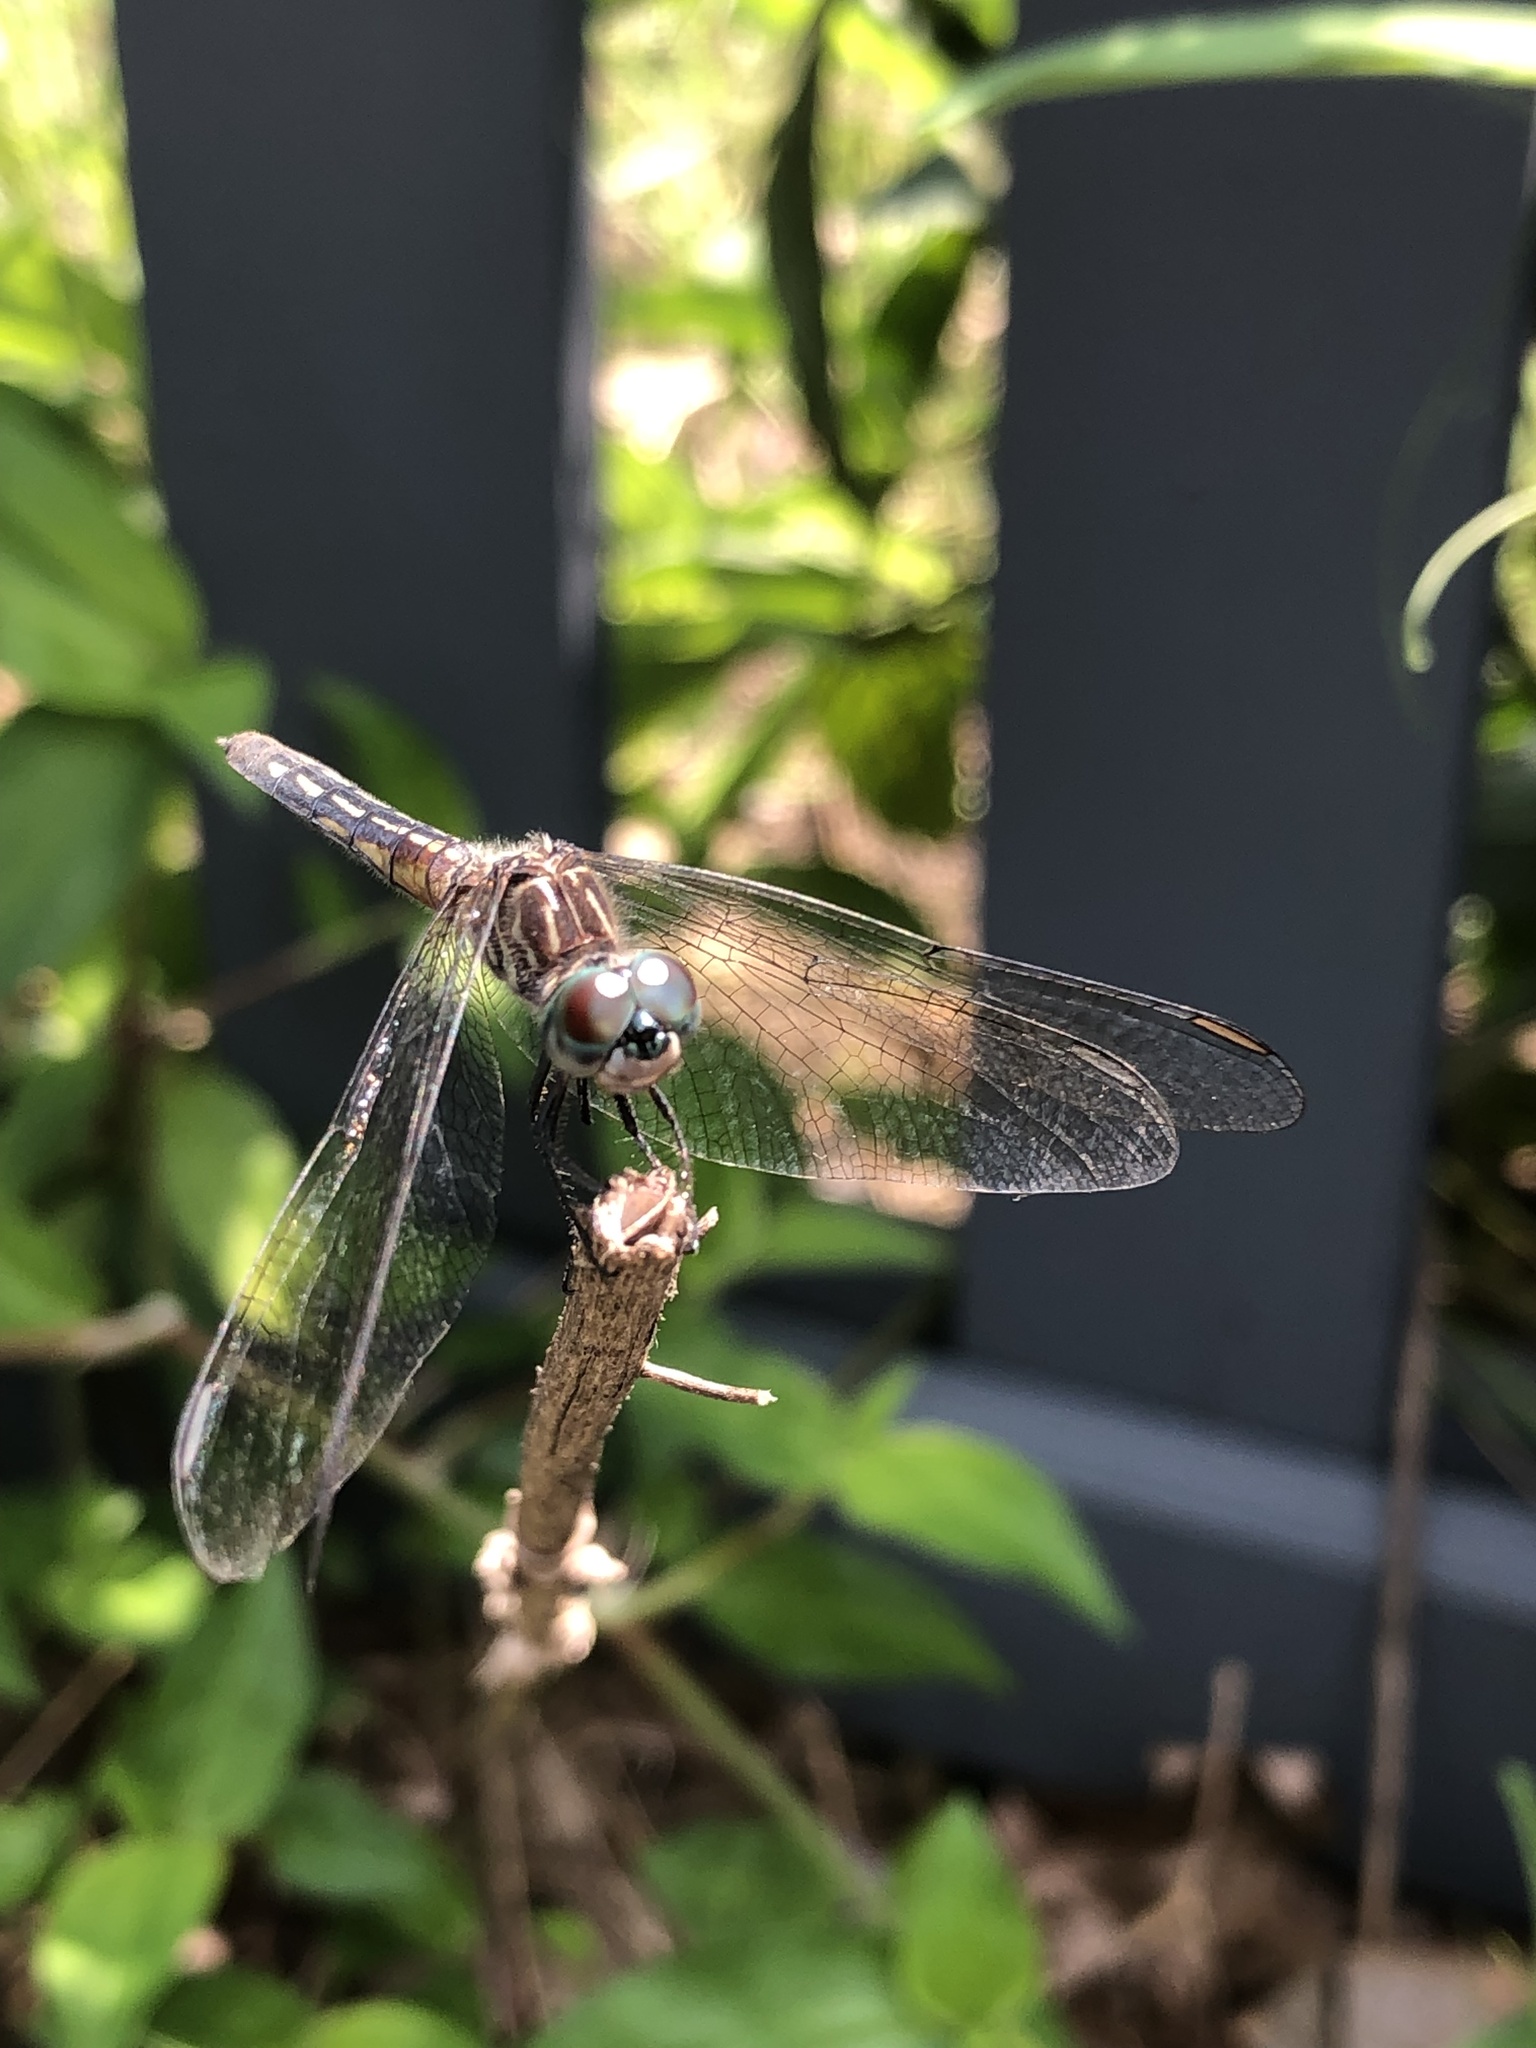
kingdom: Animalia
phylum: Arthropoda
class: Insecta
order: Odonata
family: Libellulidae
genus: Pachydiplax
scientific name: Pachydiplax longipennis
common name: Blue dasher
